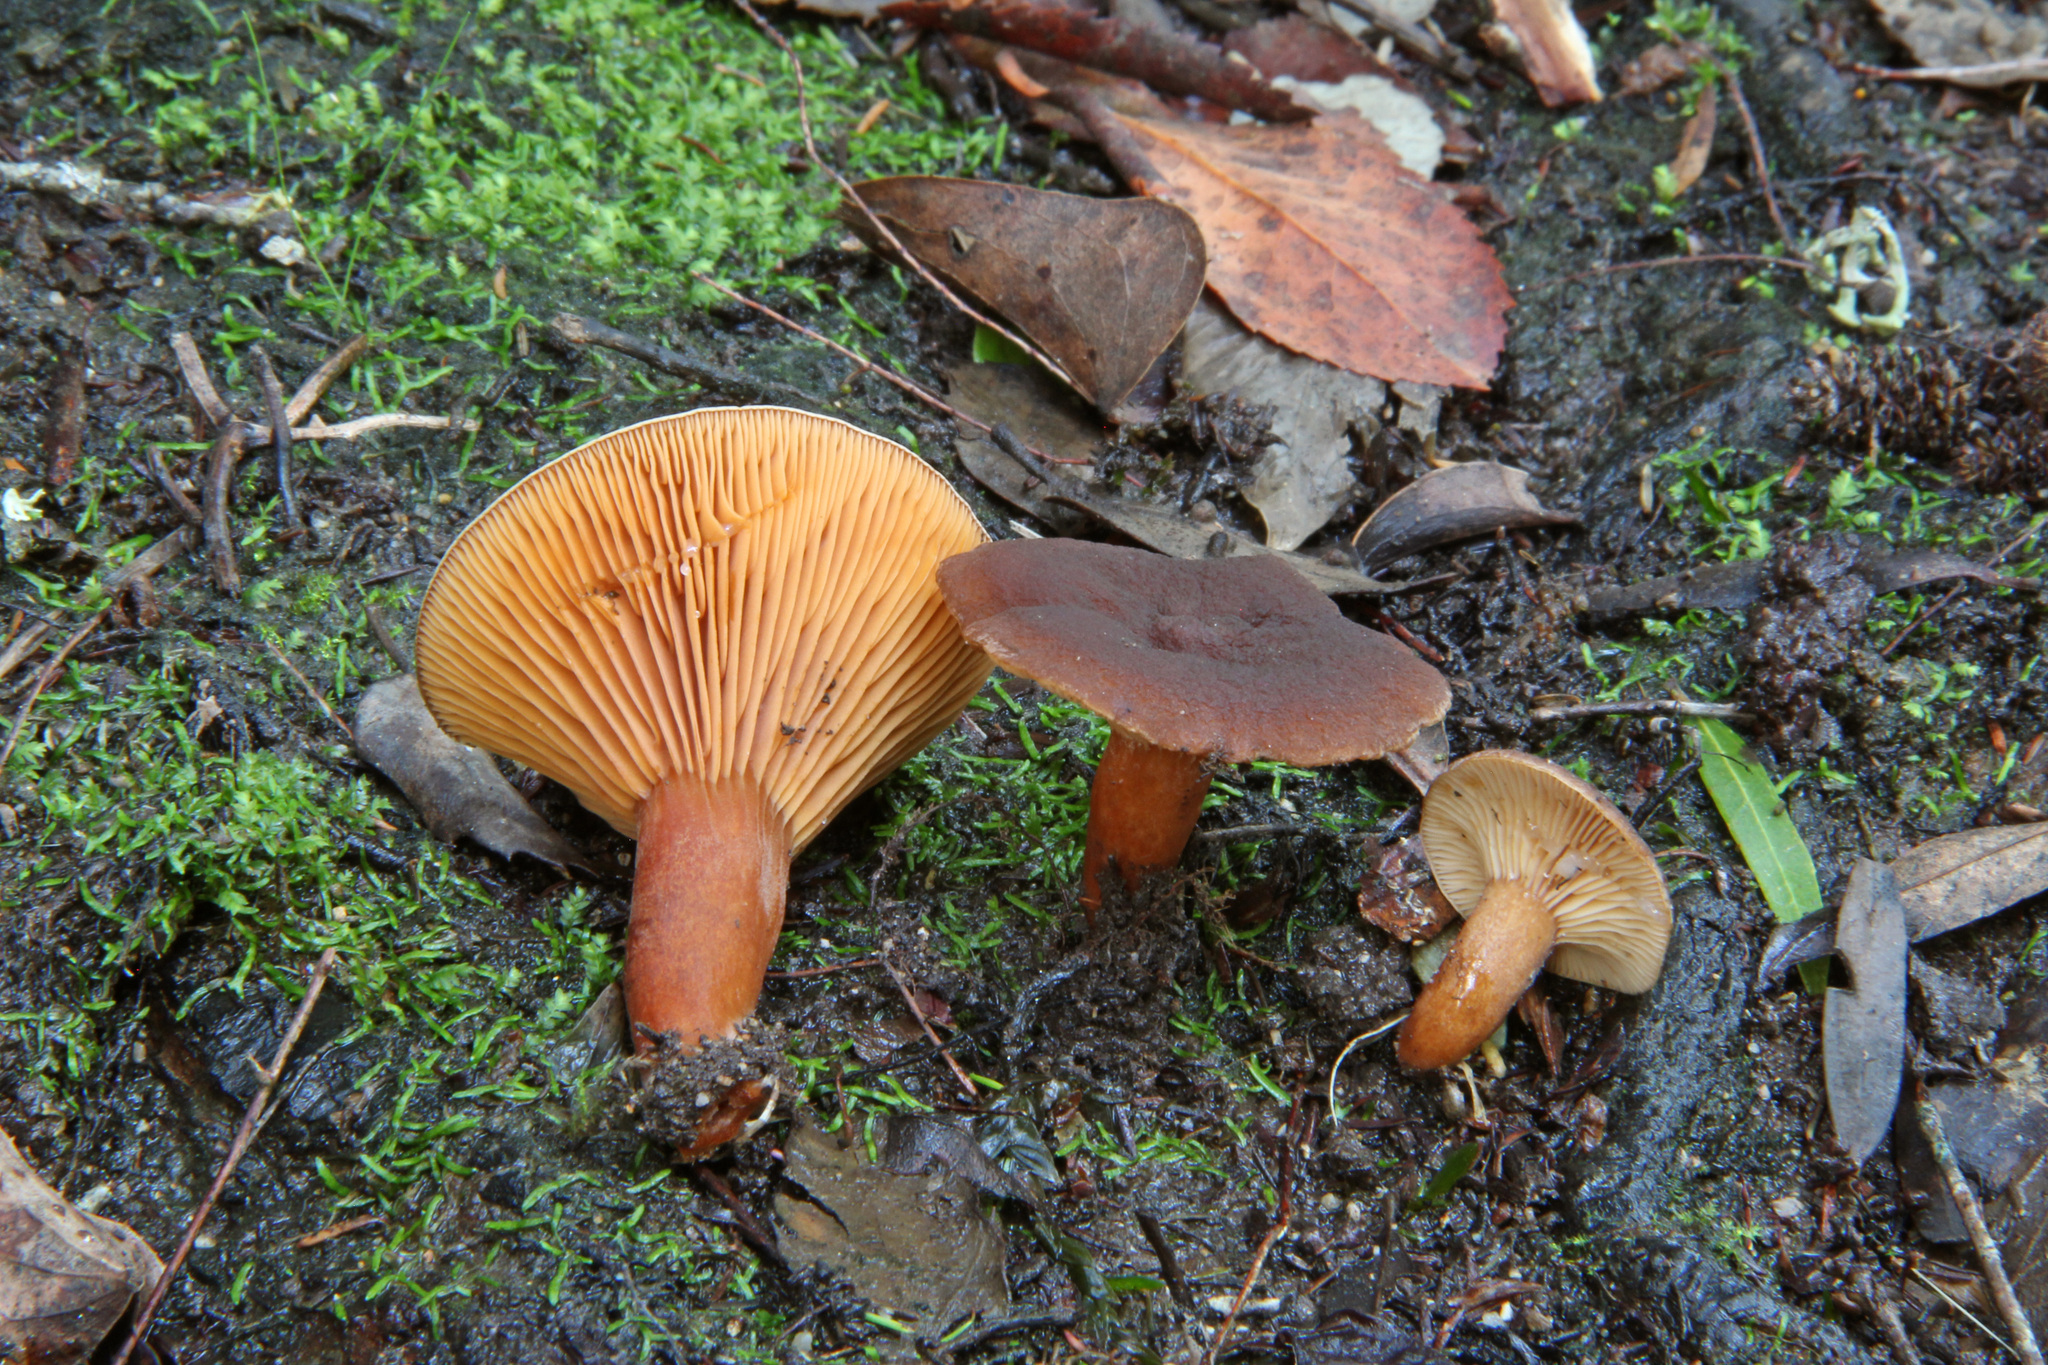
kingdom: Fungi
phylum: Basidiomycota
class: Agaricomycetes
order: Russulales
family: Russulaceae
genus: Lactarius
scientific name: Lactarius serifluus
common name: Watery milk-cap
